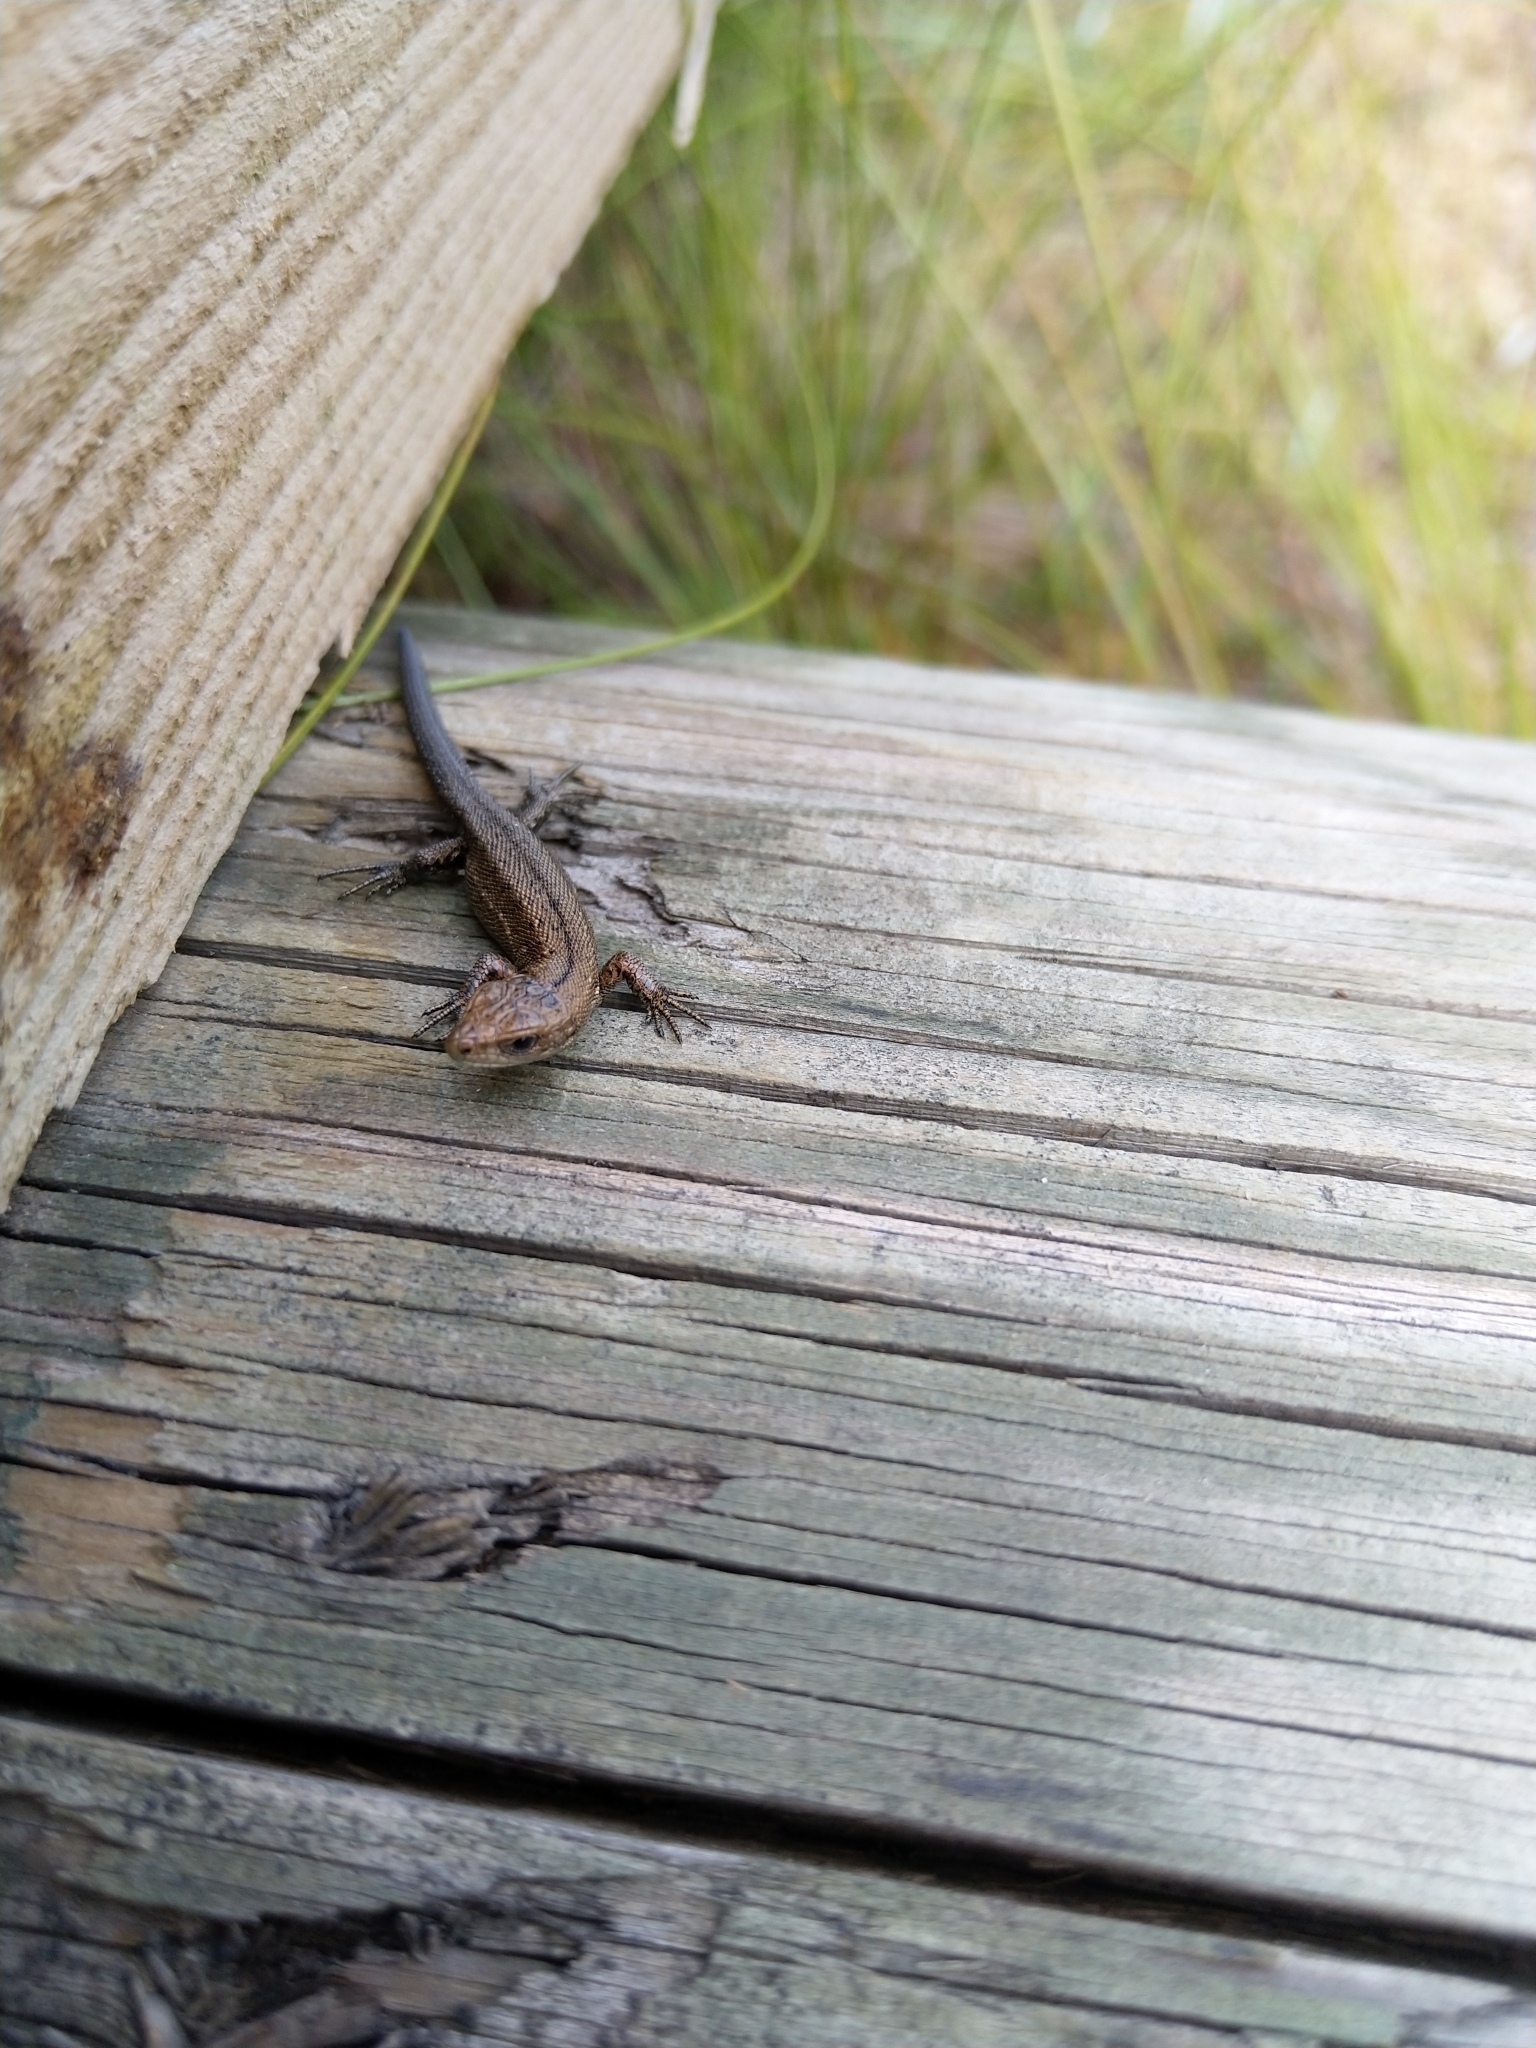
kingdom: Animalia
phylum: Chordata
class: Squamata
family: Lacertidae
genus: Zootoca
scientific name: Zootoca vivipara
